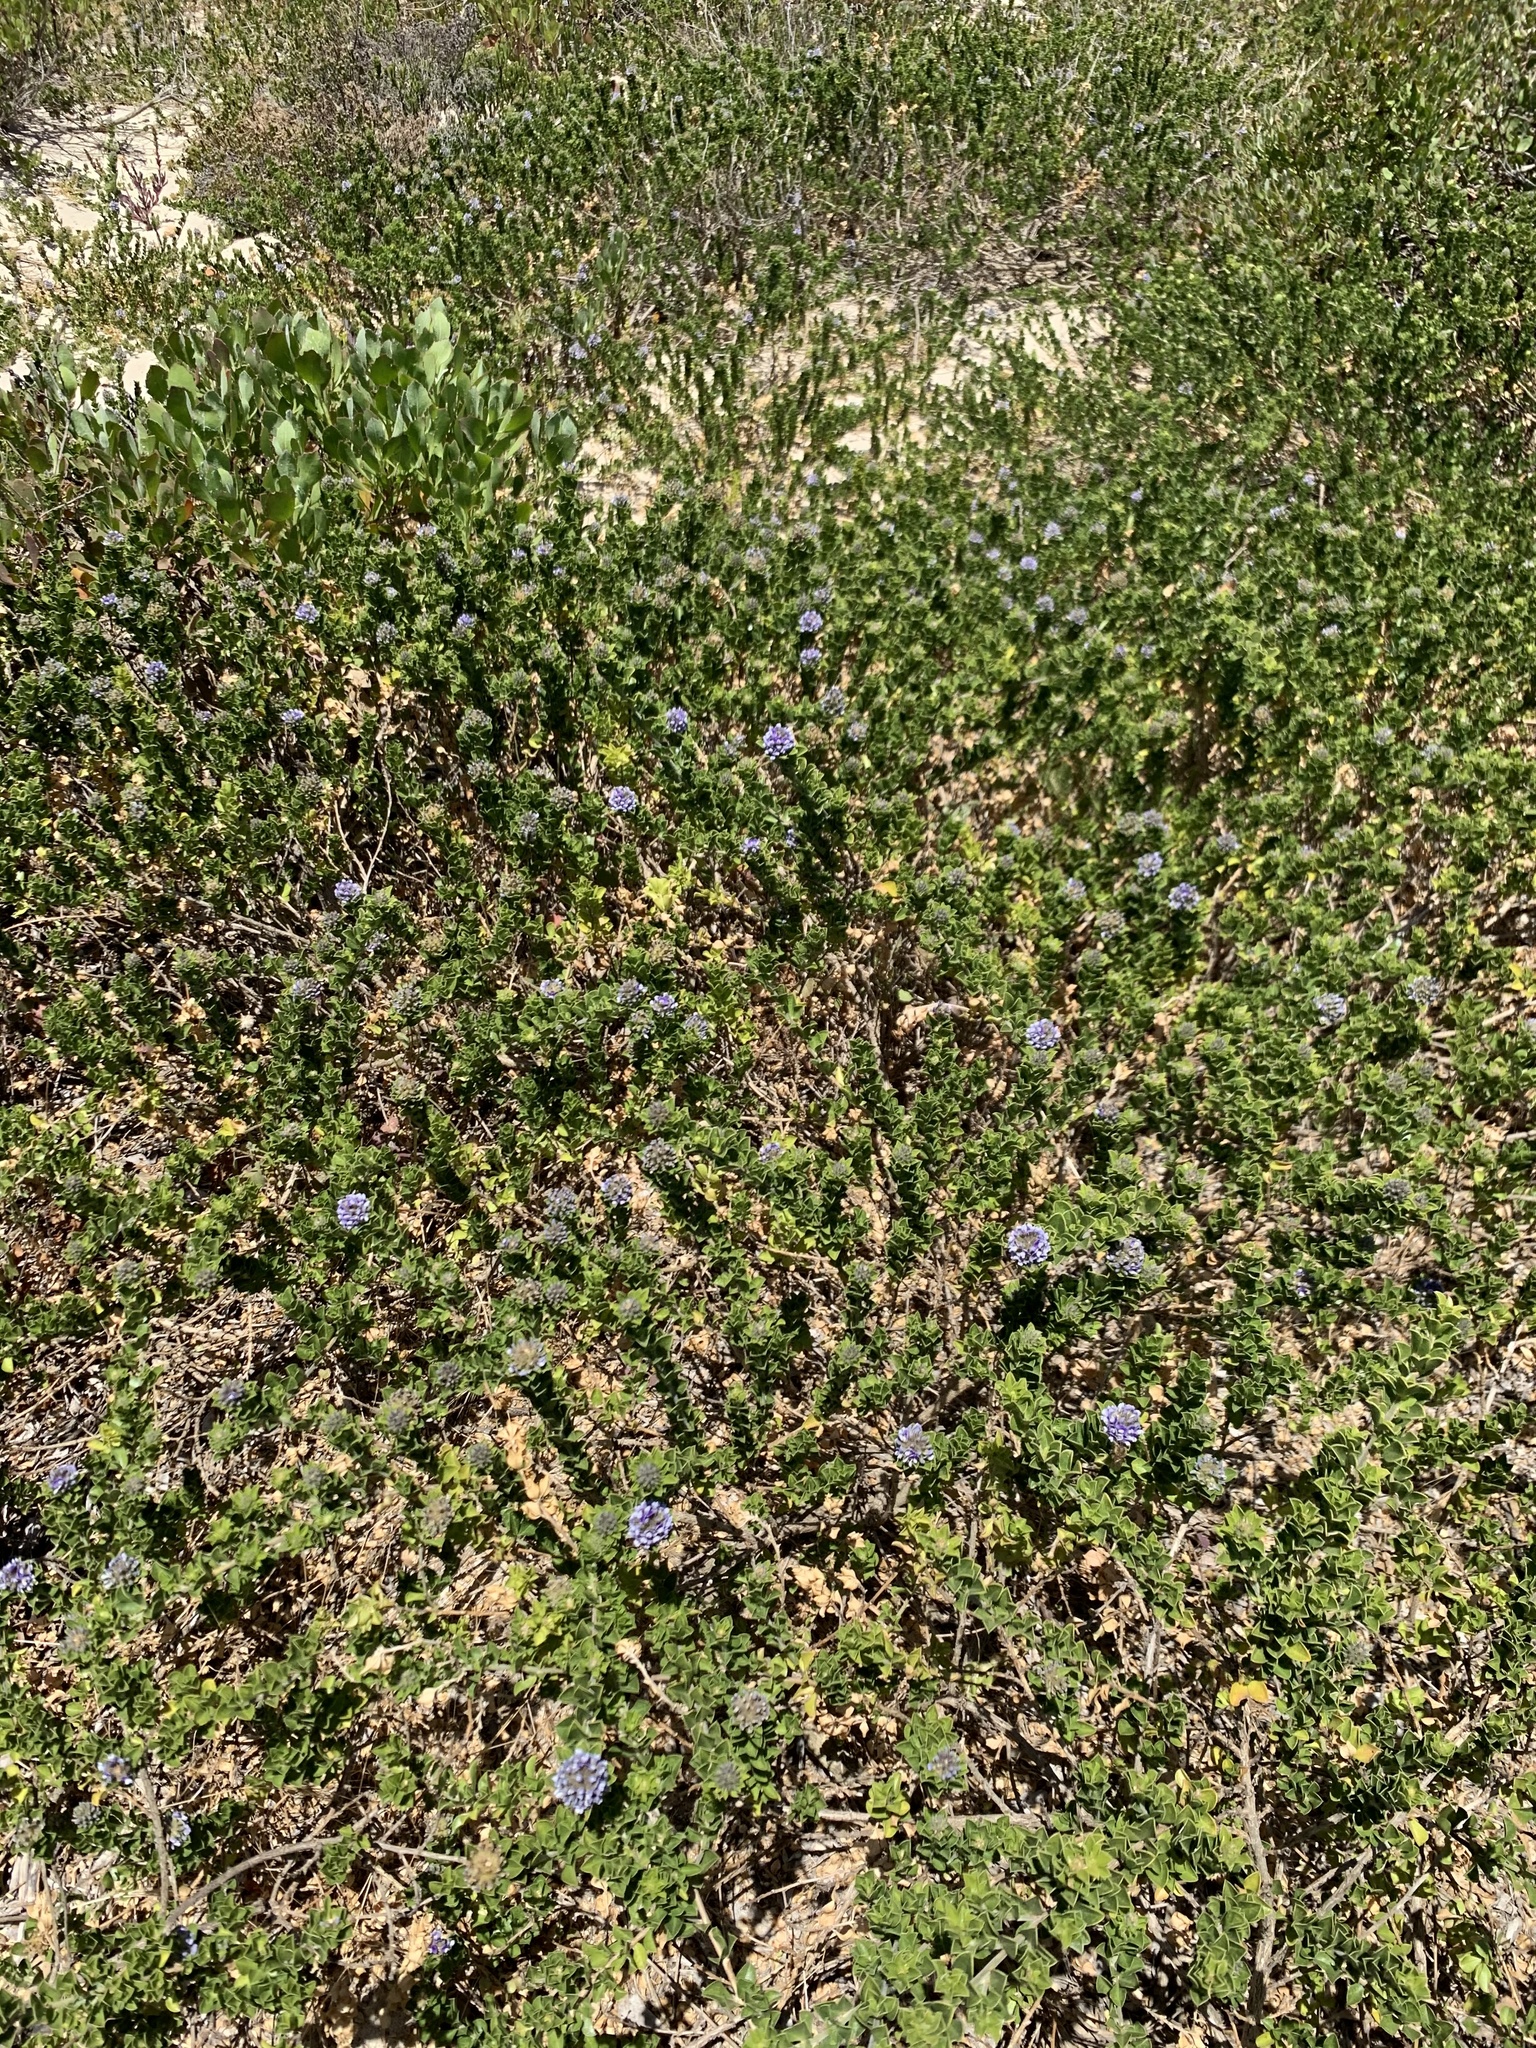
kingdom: Plantae
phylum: Tracheophyta
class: Magnoliopsida
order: Fabales
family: Fabaceae
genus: Psoralea
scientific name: Psoralea bracteolata
